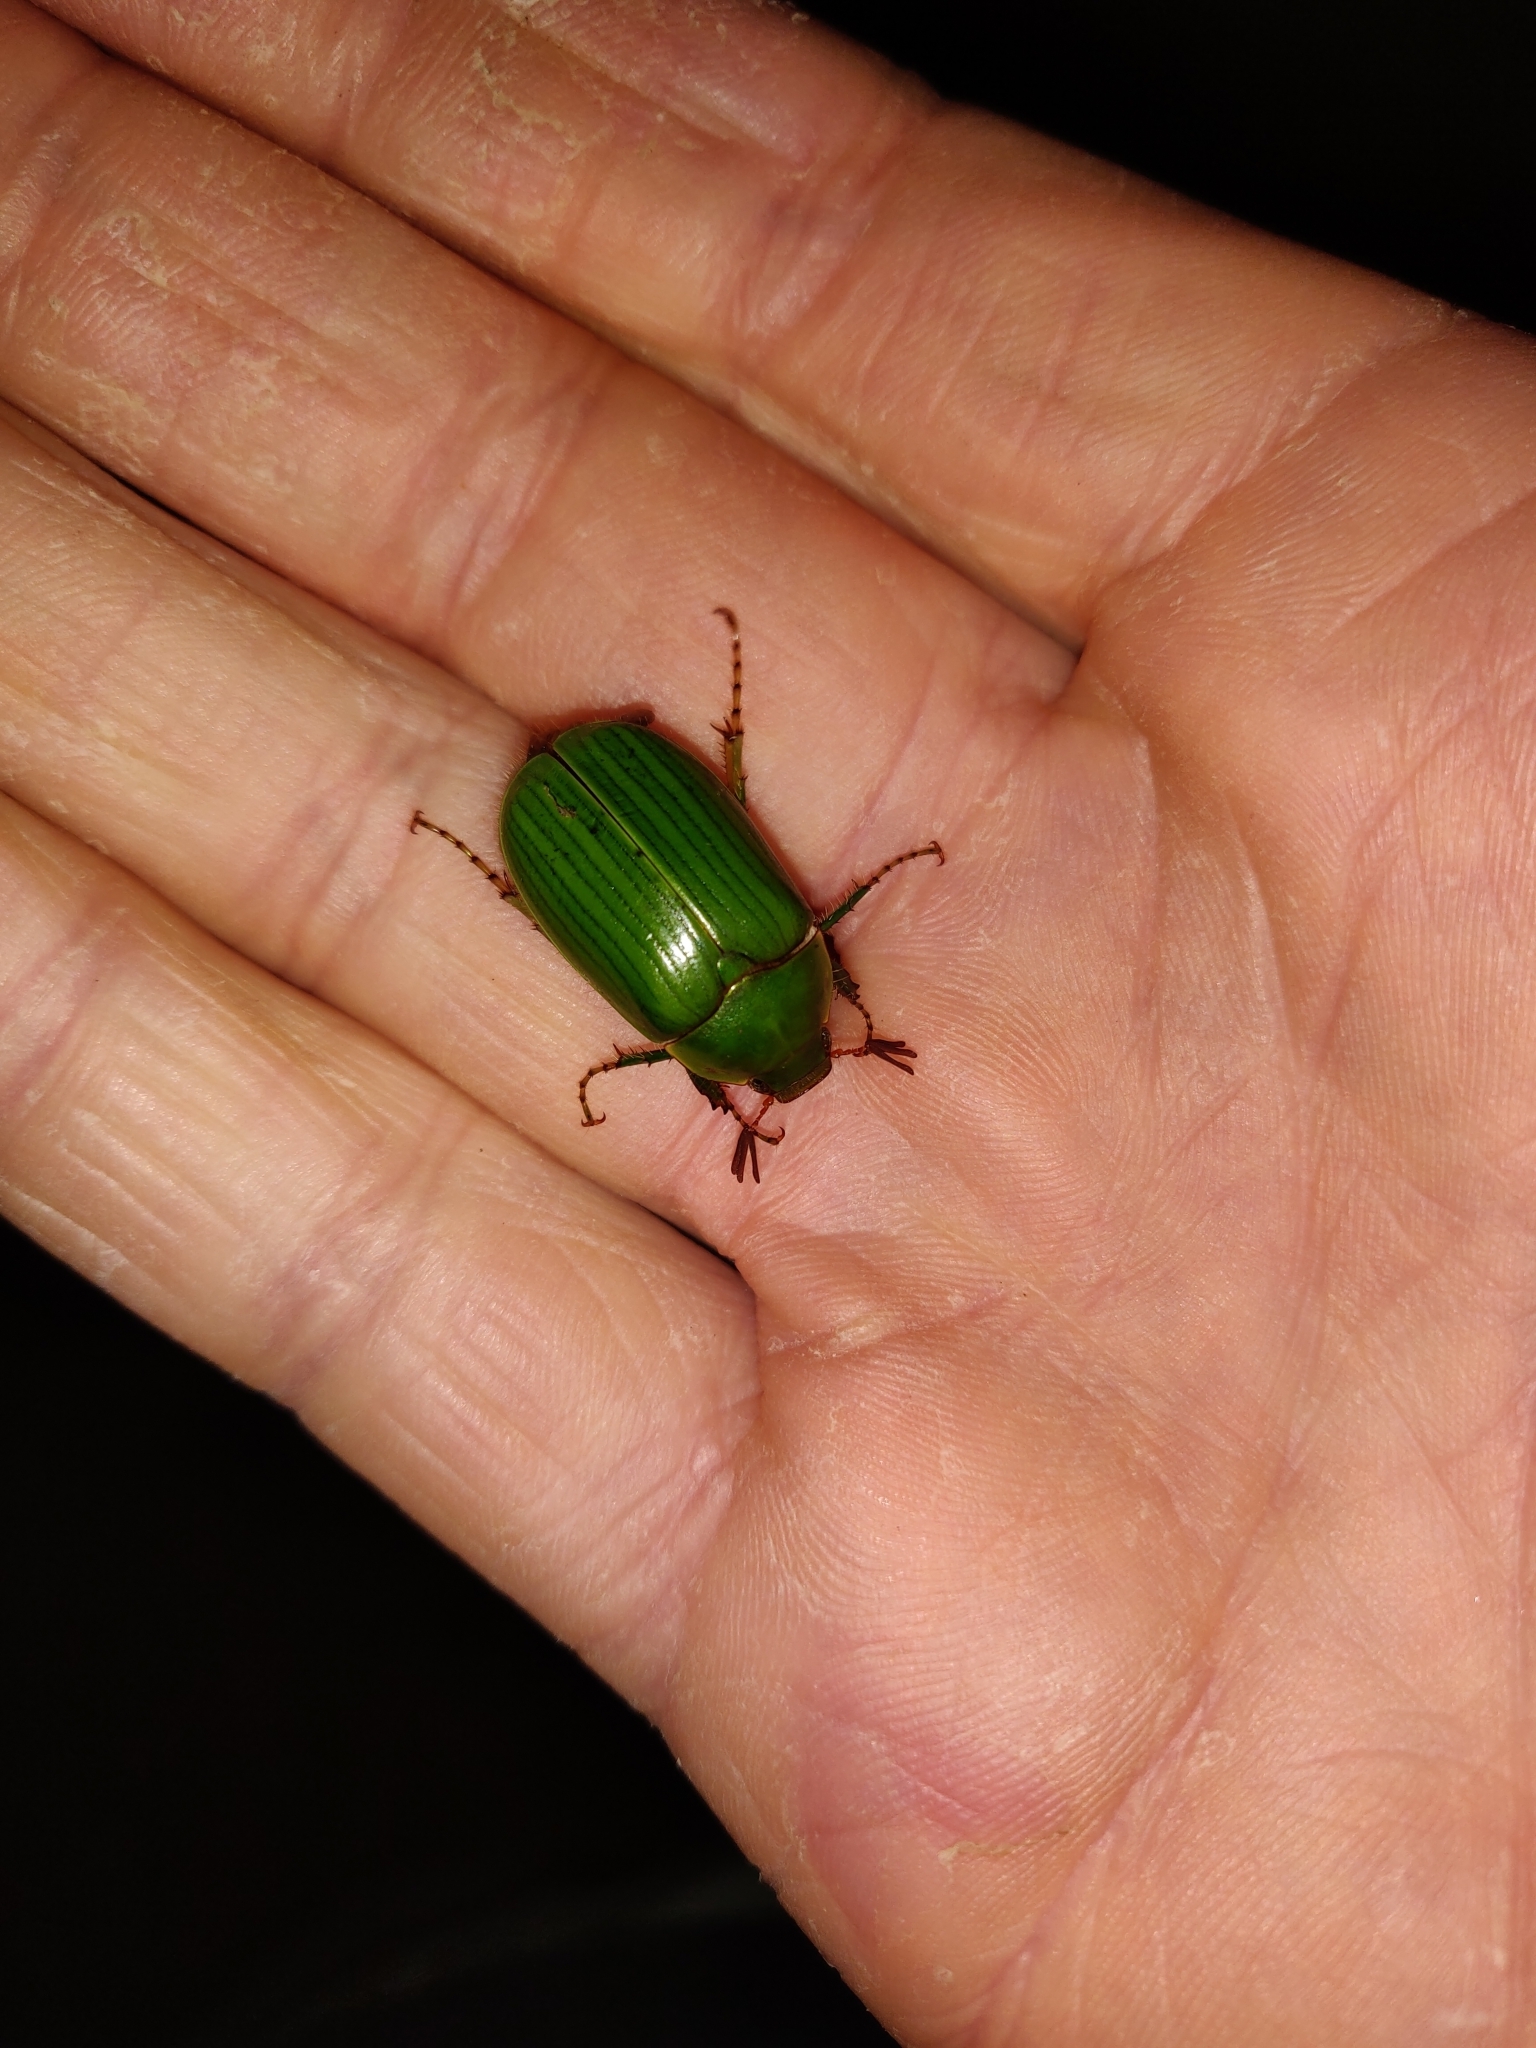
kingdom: Animalia
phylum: Arthropoda
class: Insecta
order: Coleoptera
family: Scarabaeidae
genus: Stethaspis
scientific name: Stethaspis longicornis
